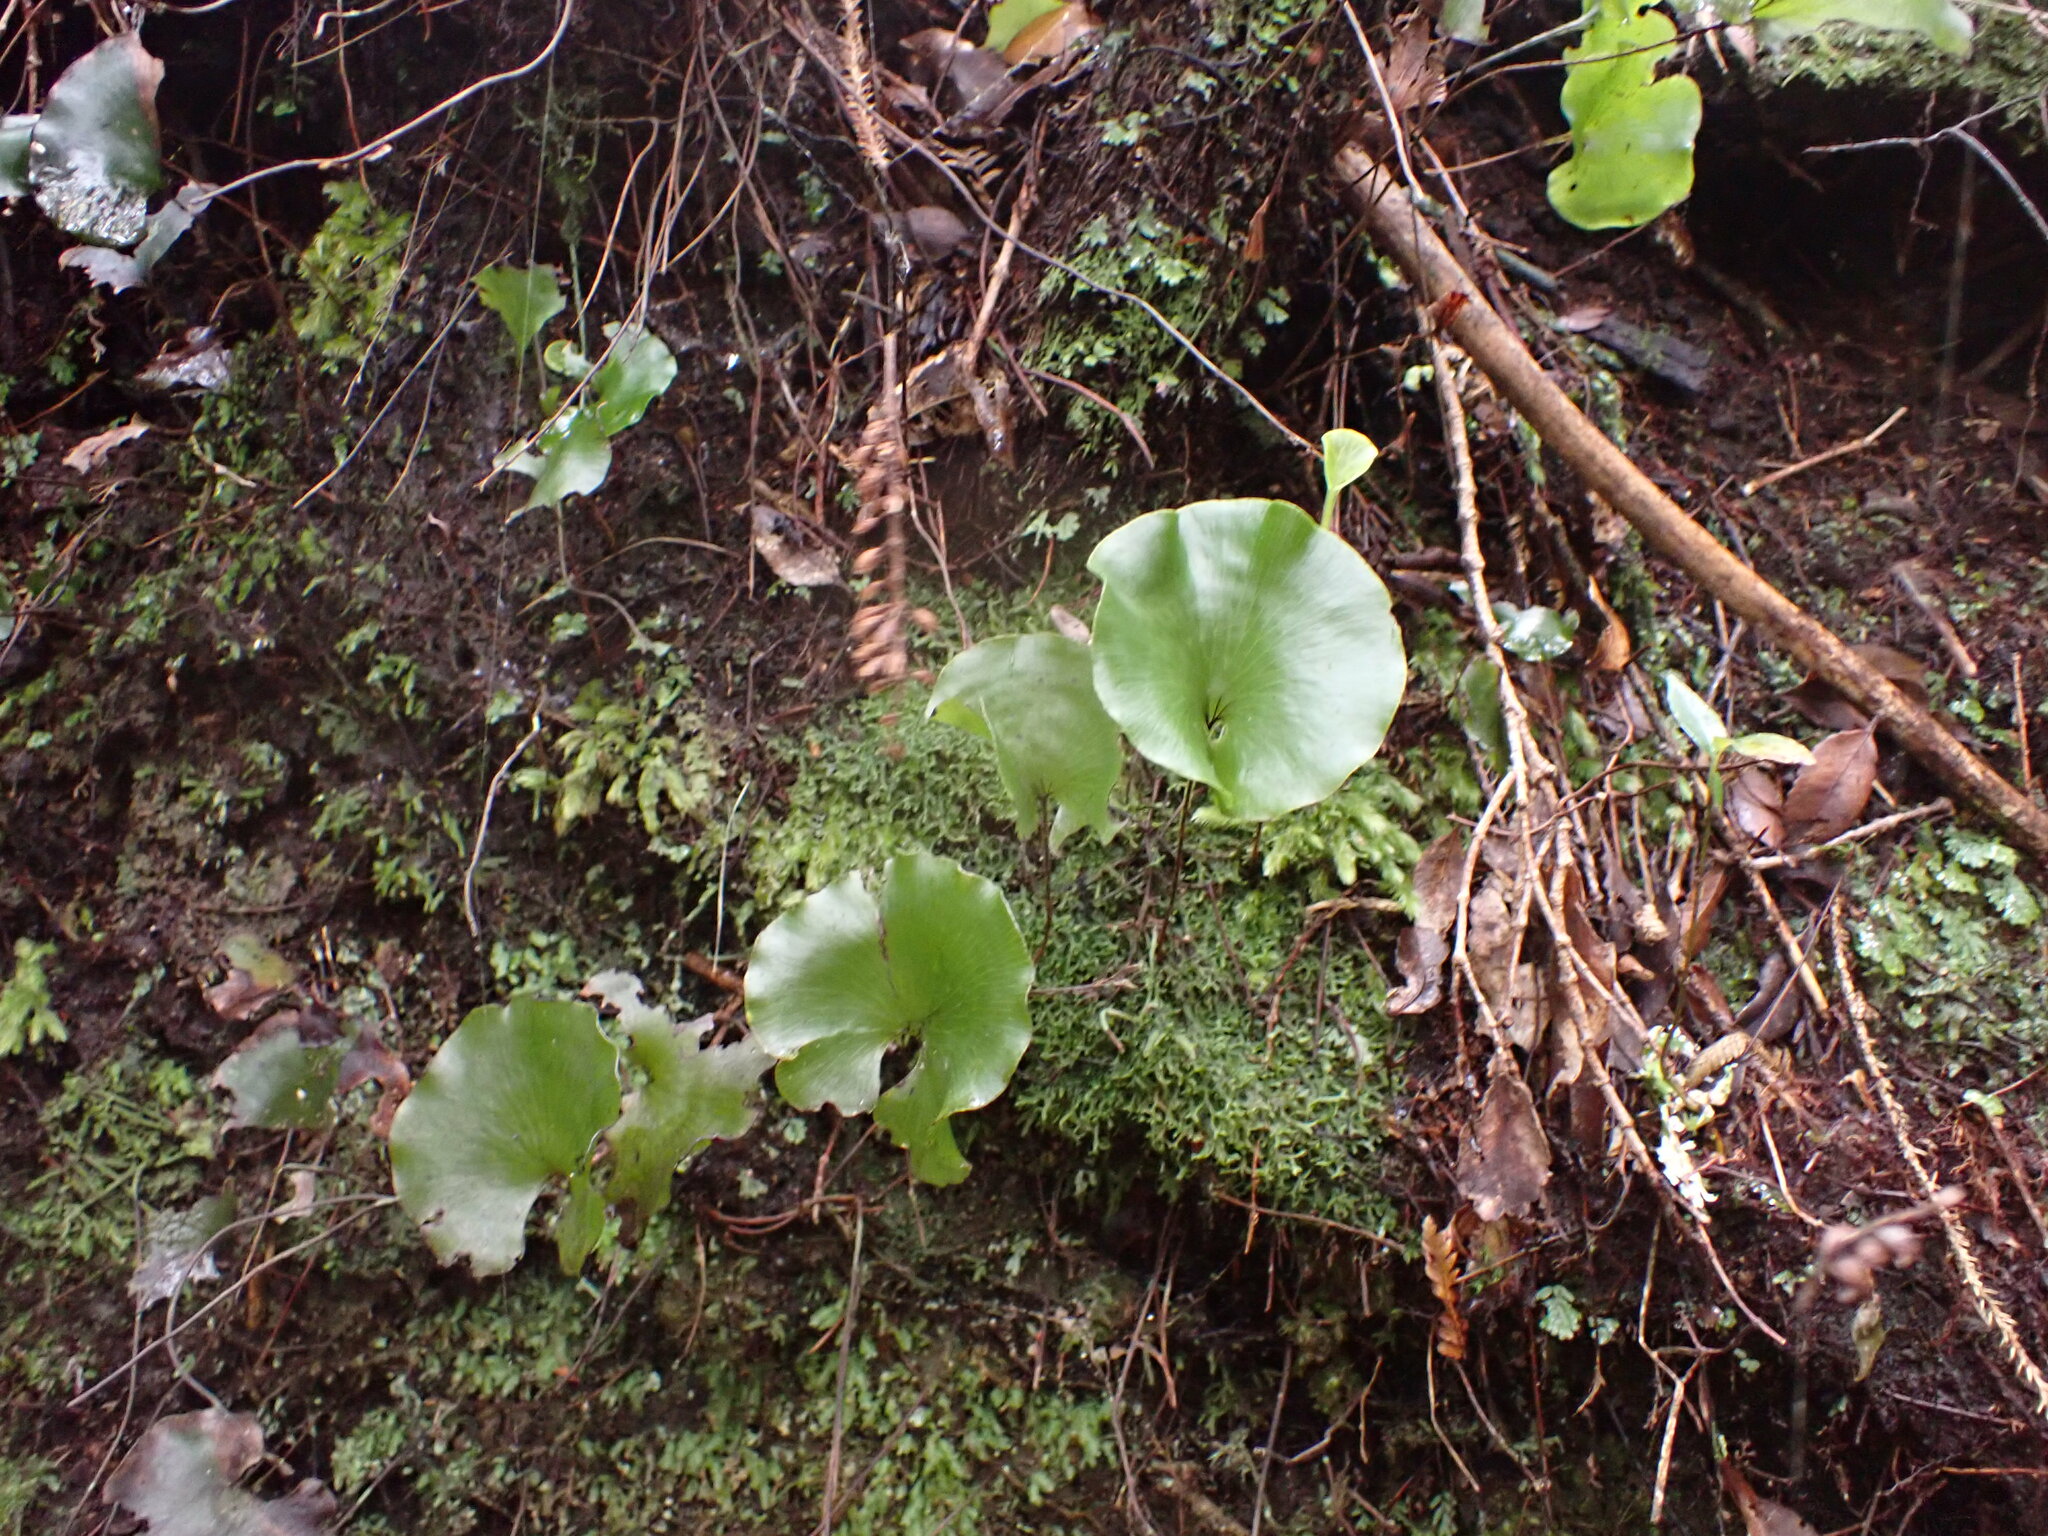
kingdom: Plantae
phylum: Tracheophyta
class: Polypodiopsida
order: Hymenophyllales
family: Hymenophyllaceae
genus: Hymenophyllum
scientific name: Hymenophyllum nephrophyllum
